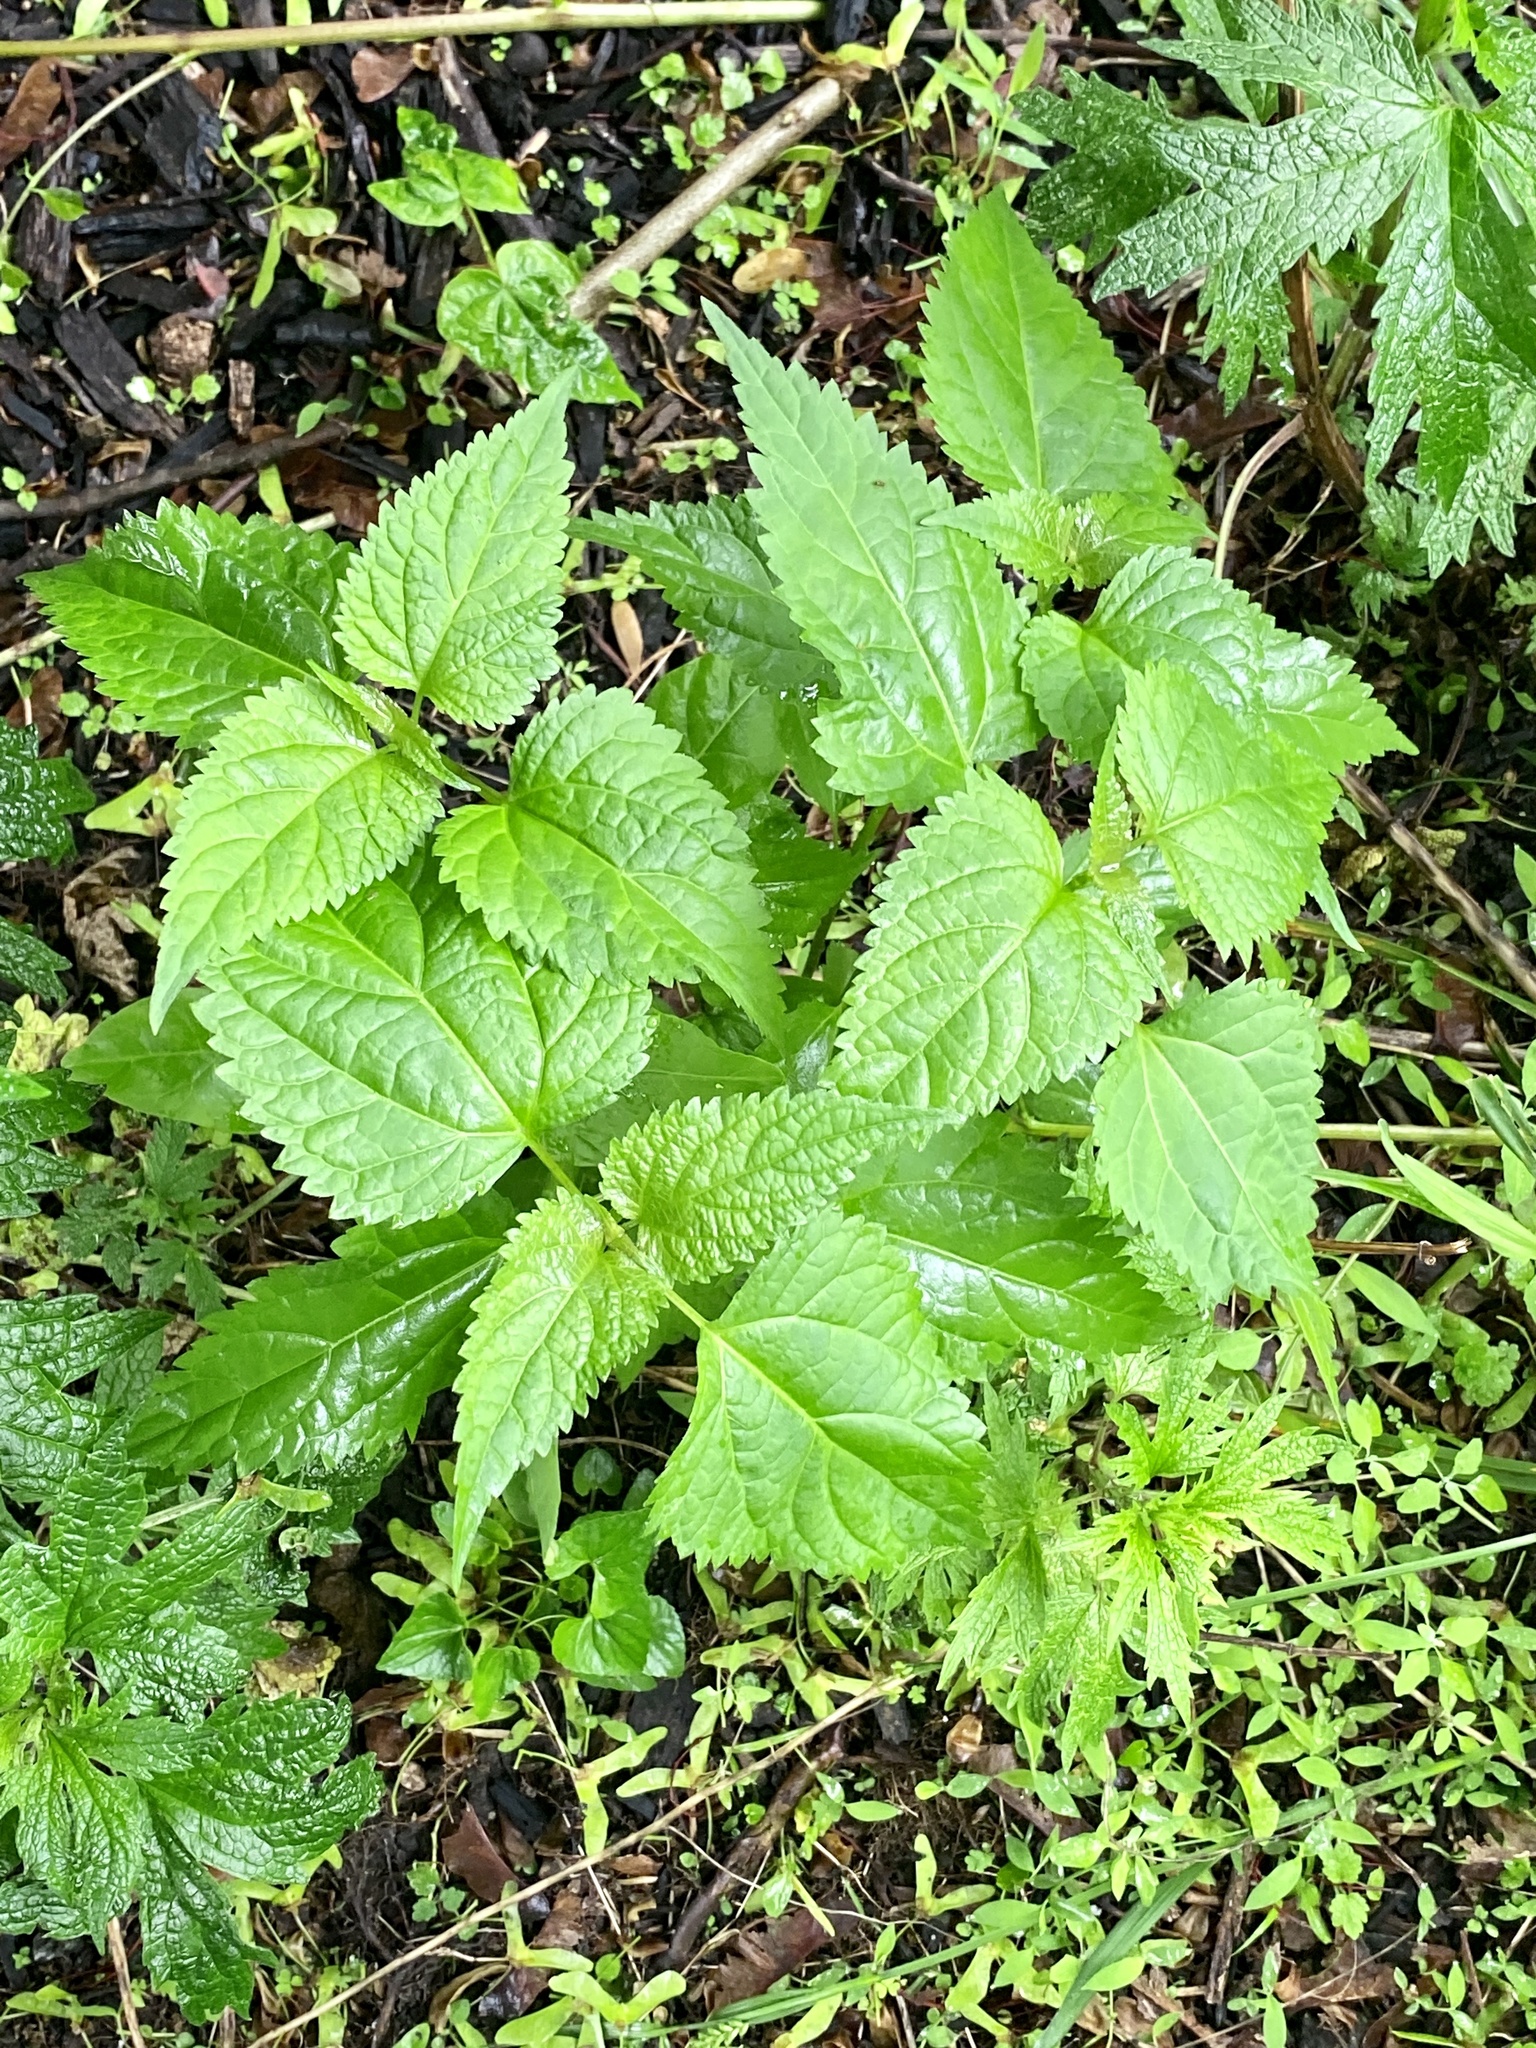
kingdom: Plantae
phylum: Tracheophyta
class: Magnoliopsida
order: Asterales
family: Asteraceae
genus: Ageratina
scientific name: Ageratina altissima
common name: White snakeroot
